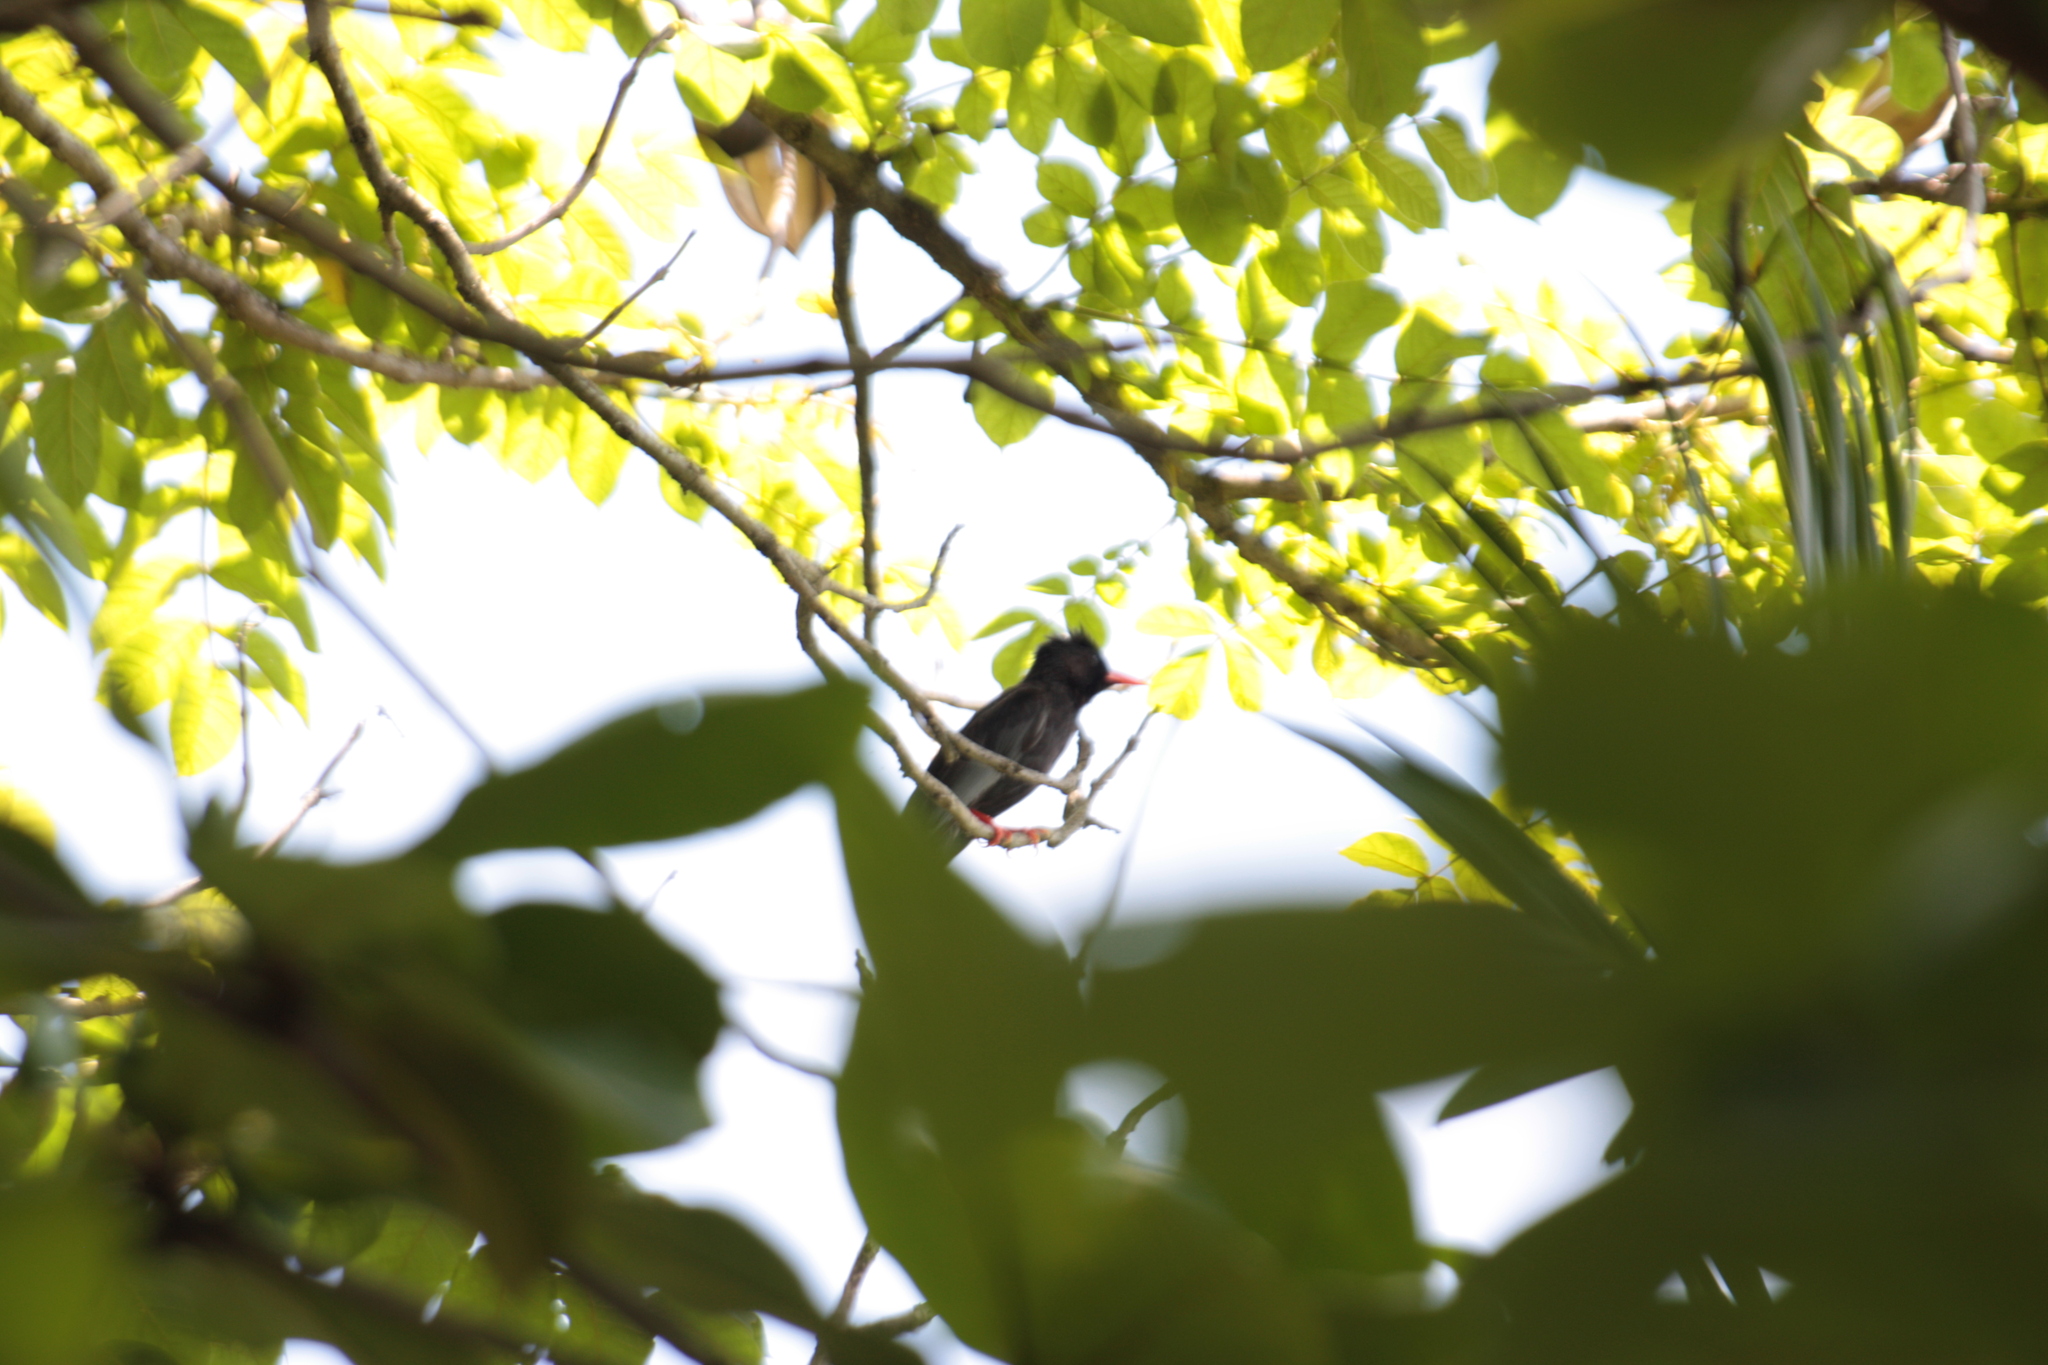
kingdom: Animalia
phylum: Chordata
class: Aves
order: Passeriformes
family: Pycnonotidae
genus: Hypsipetes
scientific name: Hypsipetes leucocephalus
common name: Black bulbul
